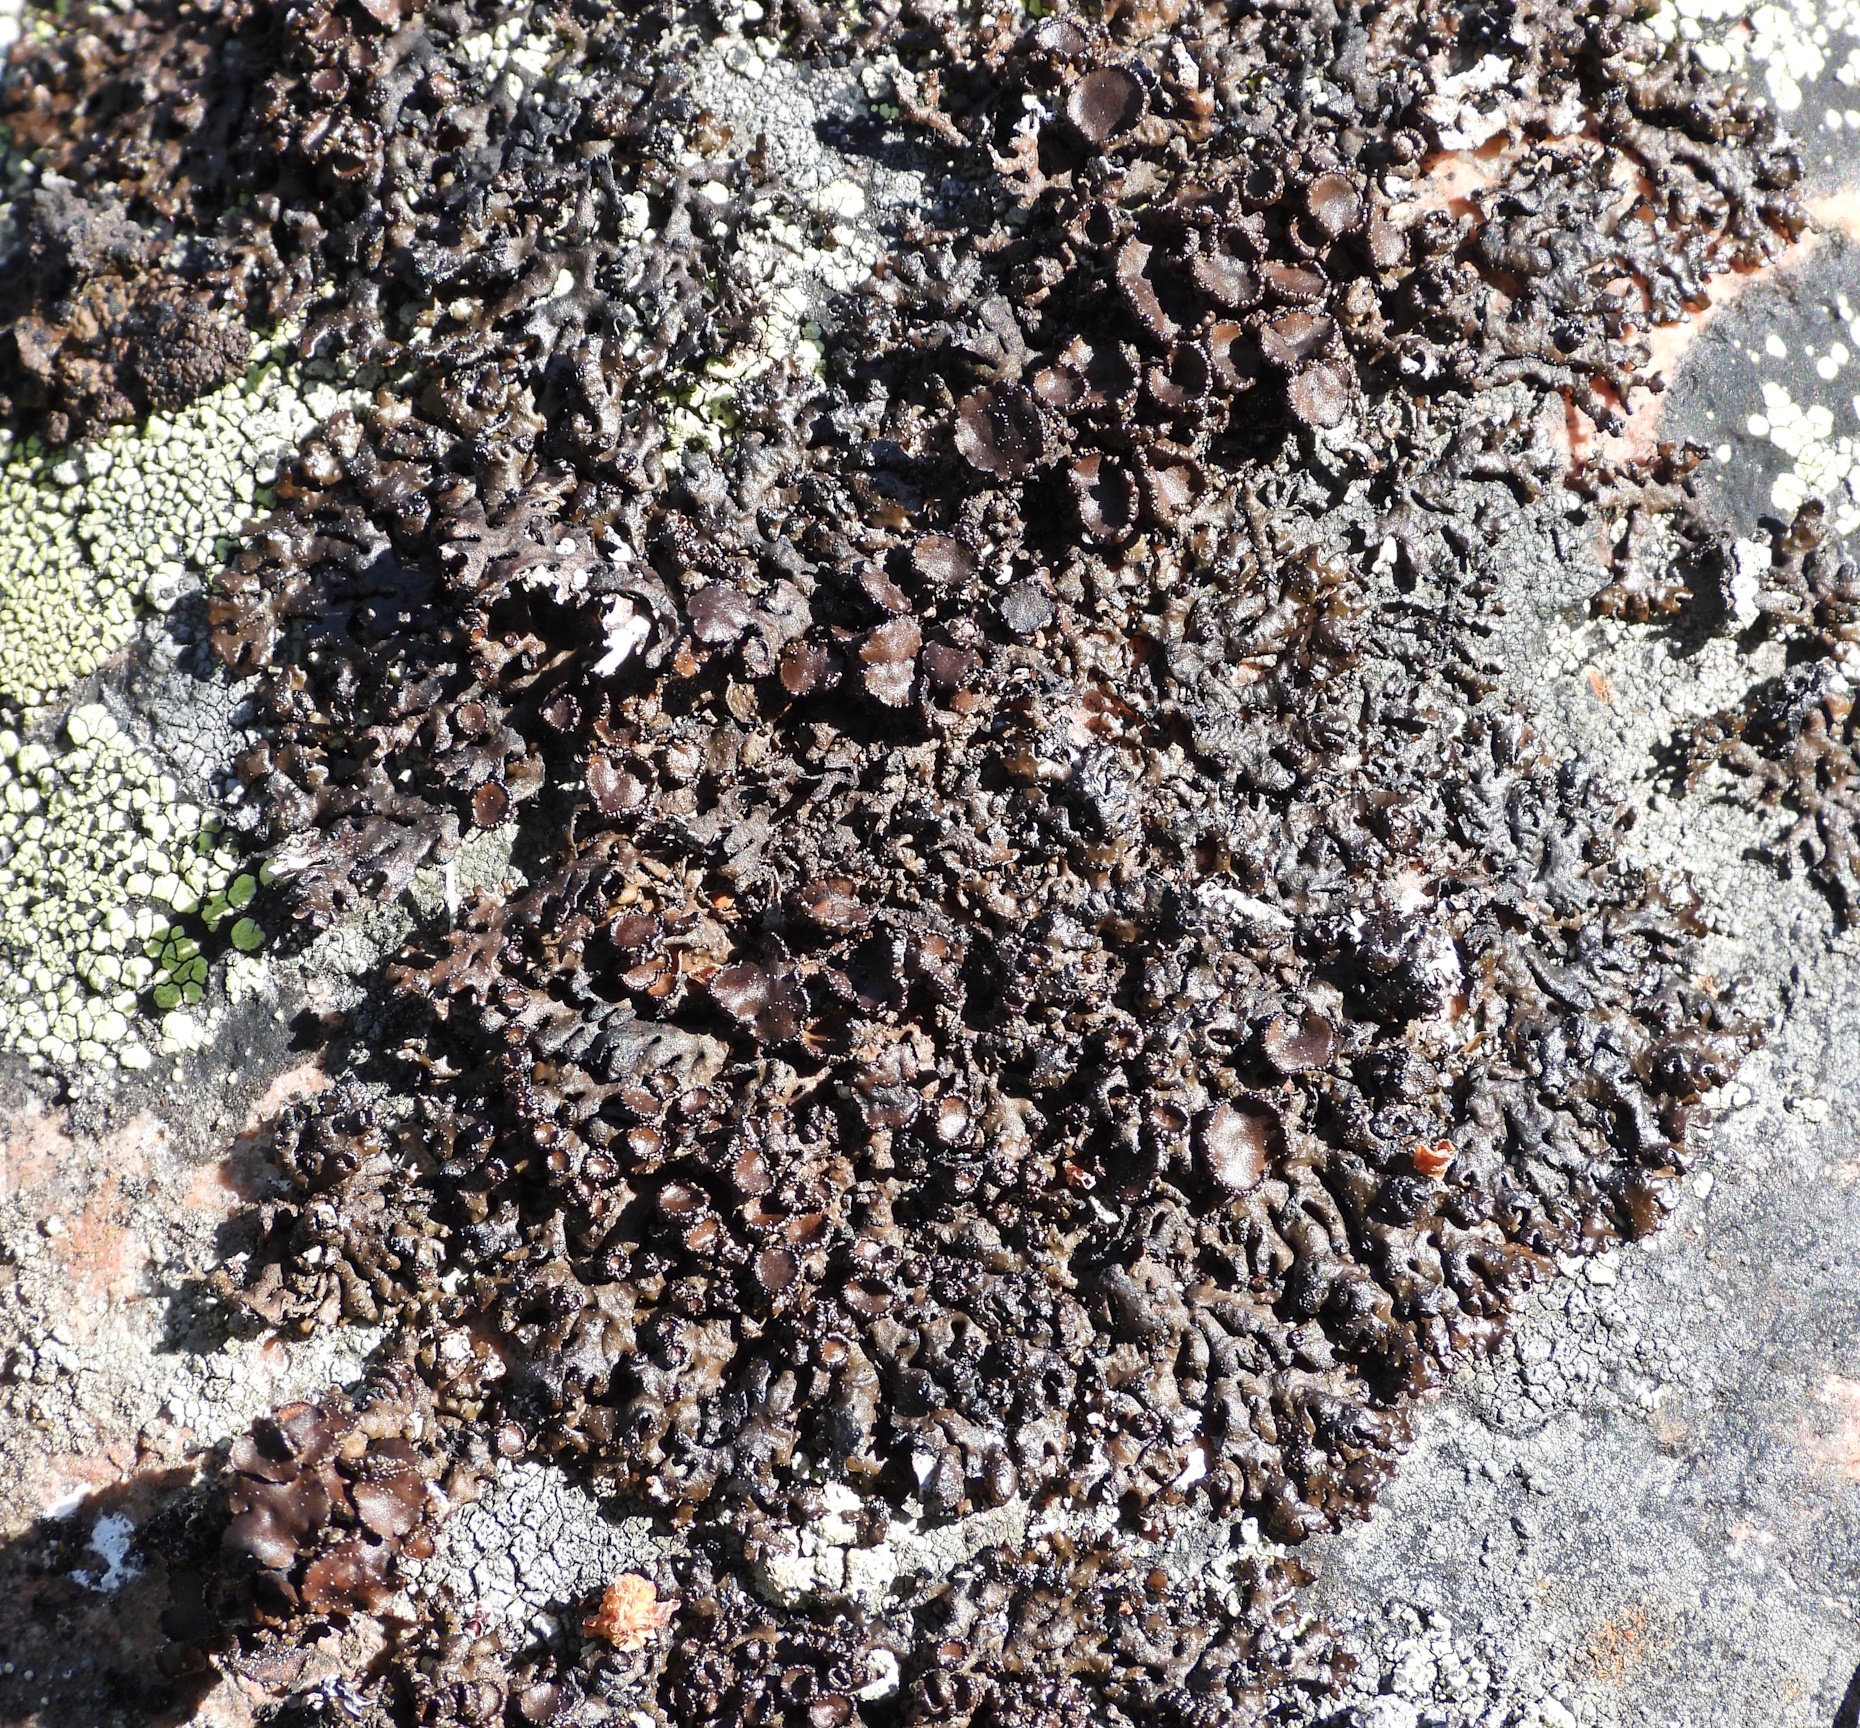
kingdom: Fungi
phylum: Ascomycota
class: Lecanoromycetes
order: Lecanorales
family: Parmeliaceae
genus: Melanelia
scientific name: Melanelia stygia
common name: Alpine camouflage lichen
